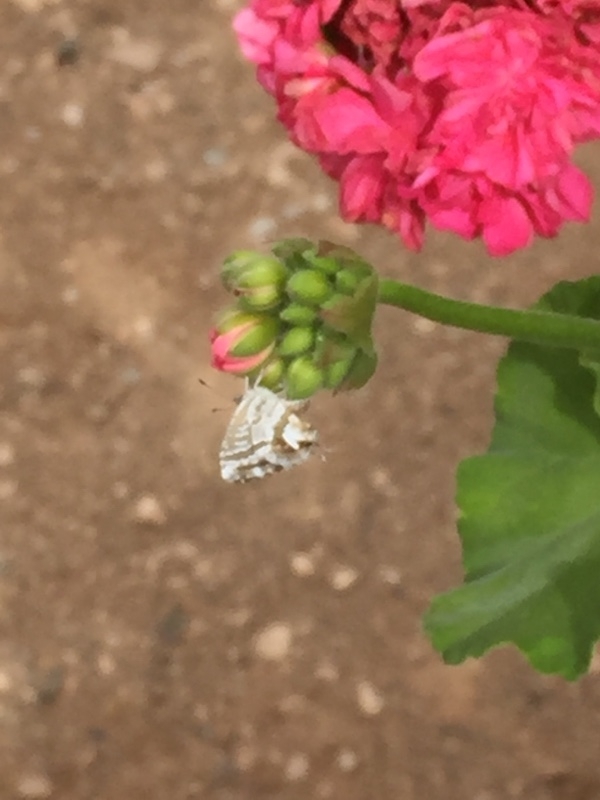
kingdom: Animalia
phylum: Arthropoda
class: Insecta
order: Lepidoptera
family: Lycaenidae
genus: Cacyreus
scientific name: Cacyreus marshalli
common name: Geranium bronze
